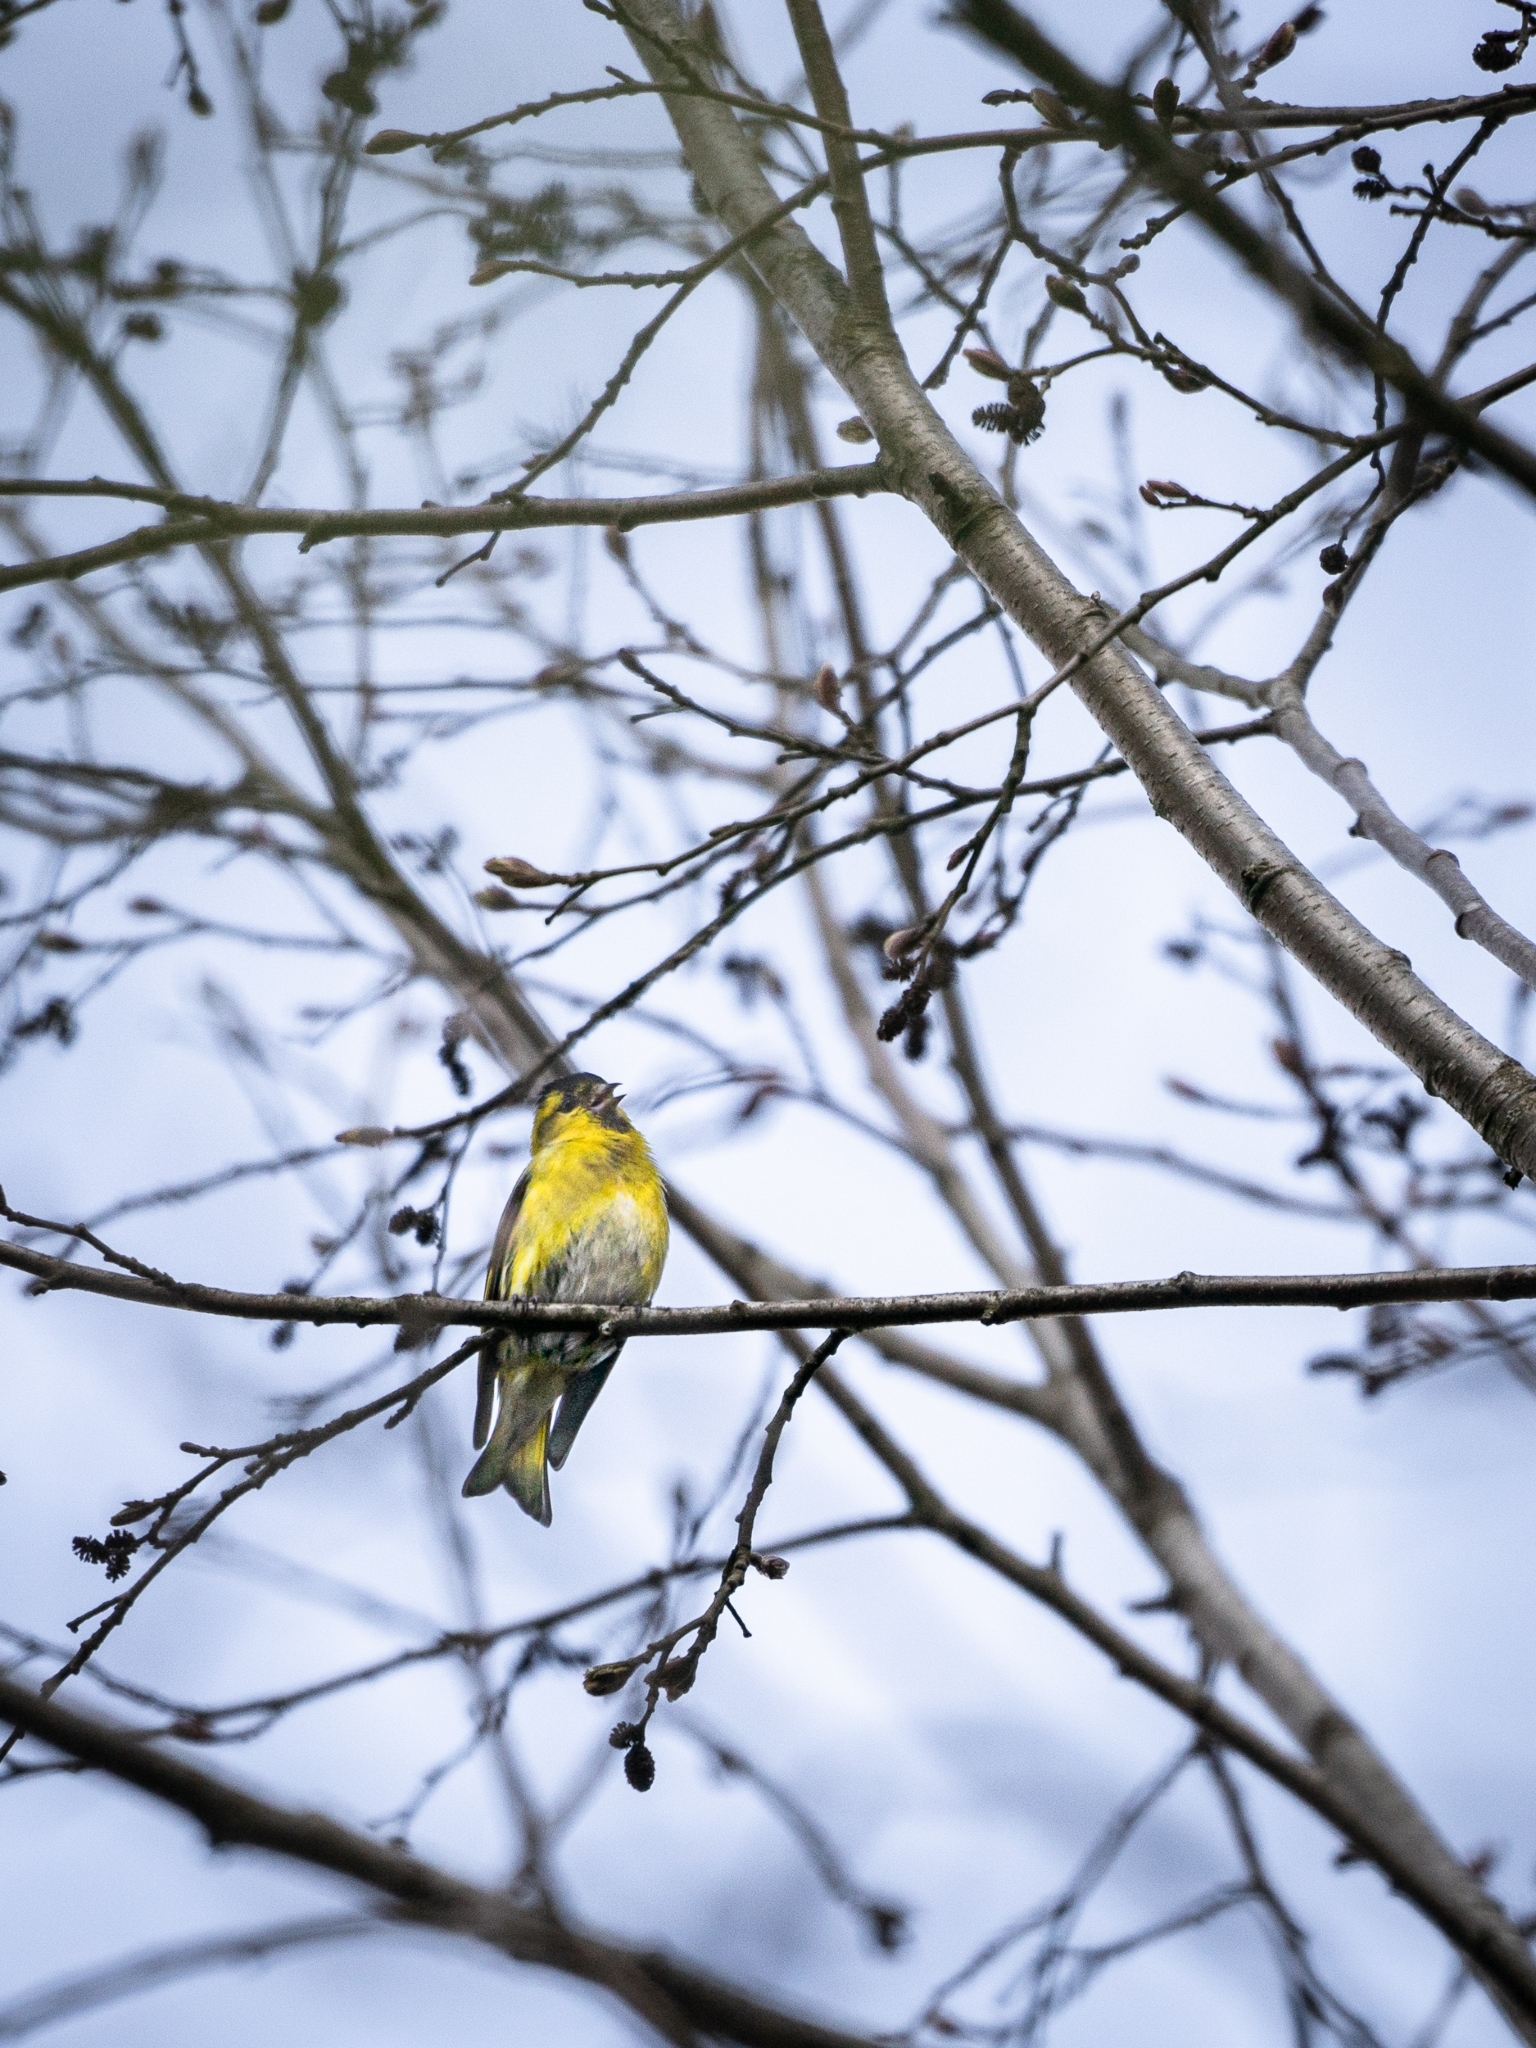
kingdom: Animalia
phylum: Chordata
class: Aves
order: Passeriformes
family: Fringillidae
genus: Spinus
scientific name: Spinus spinus
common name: Eurasian siskin
